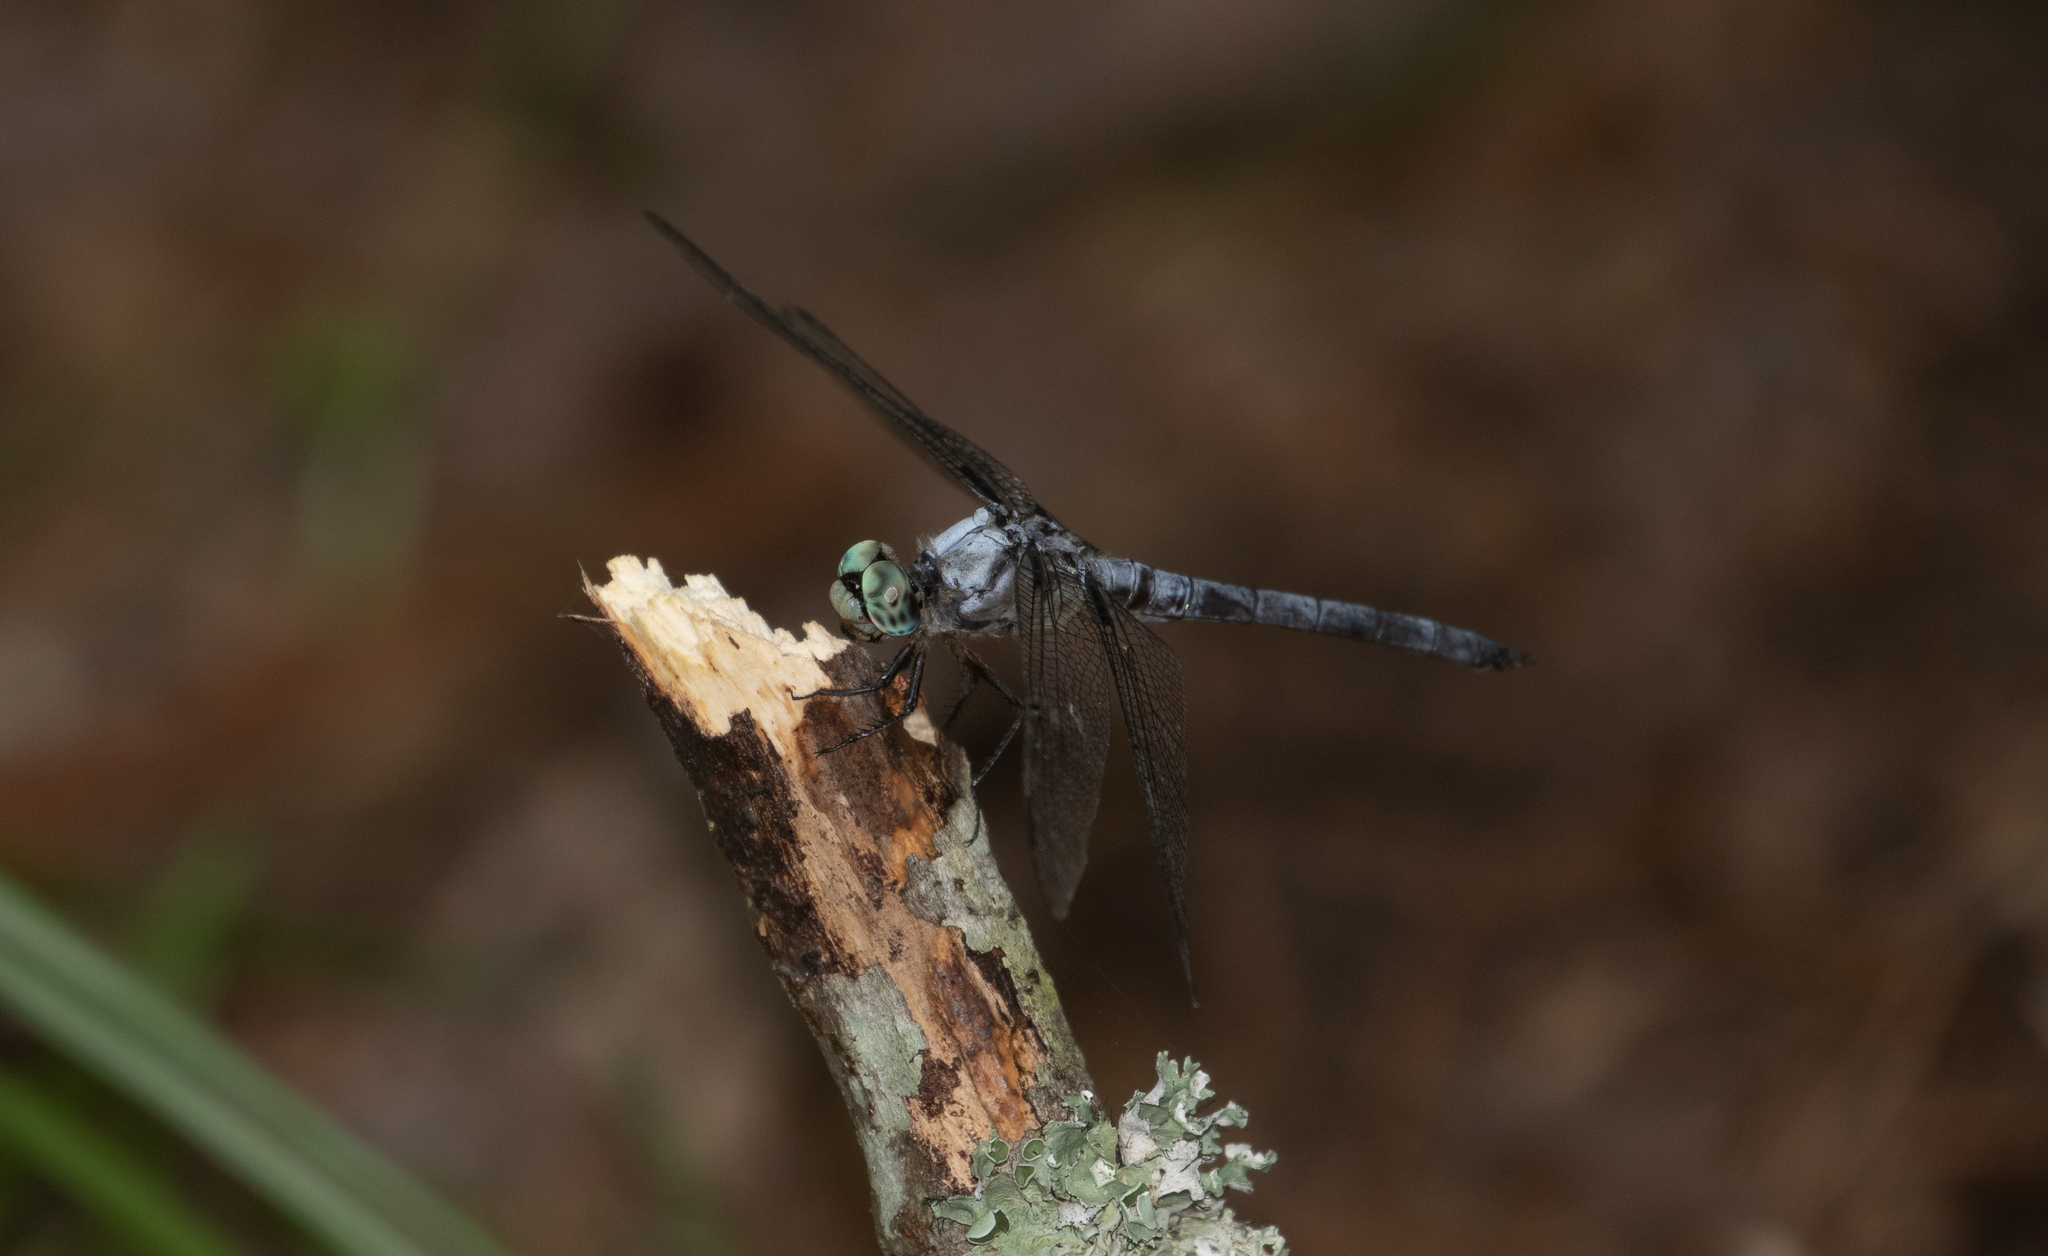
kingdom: Animalia
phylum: Arthropoda
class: Insecta
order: Odonata
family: Libellulidae
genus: Libellula
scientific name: Libellula vibrans
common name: Great blue skimmer
